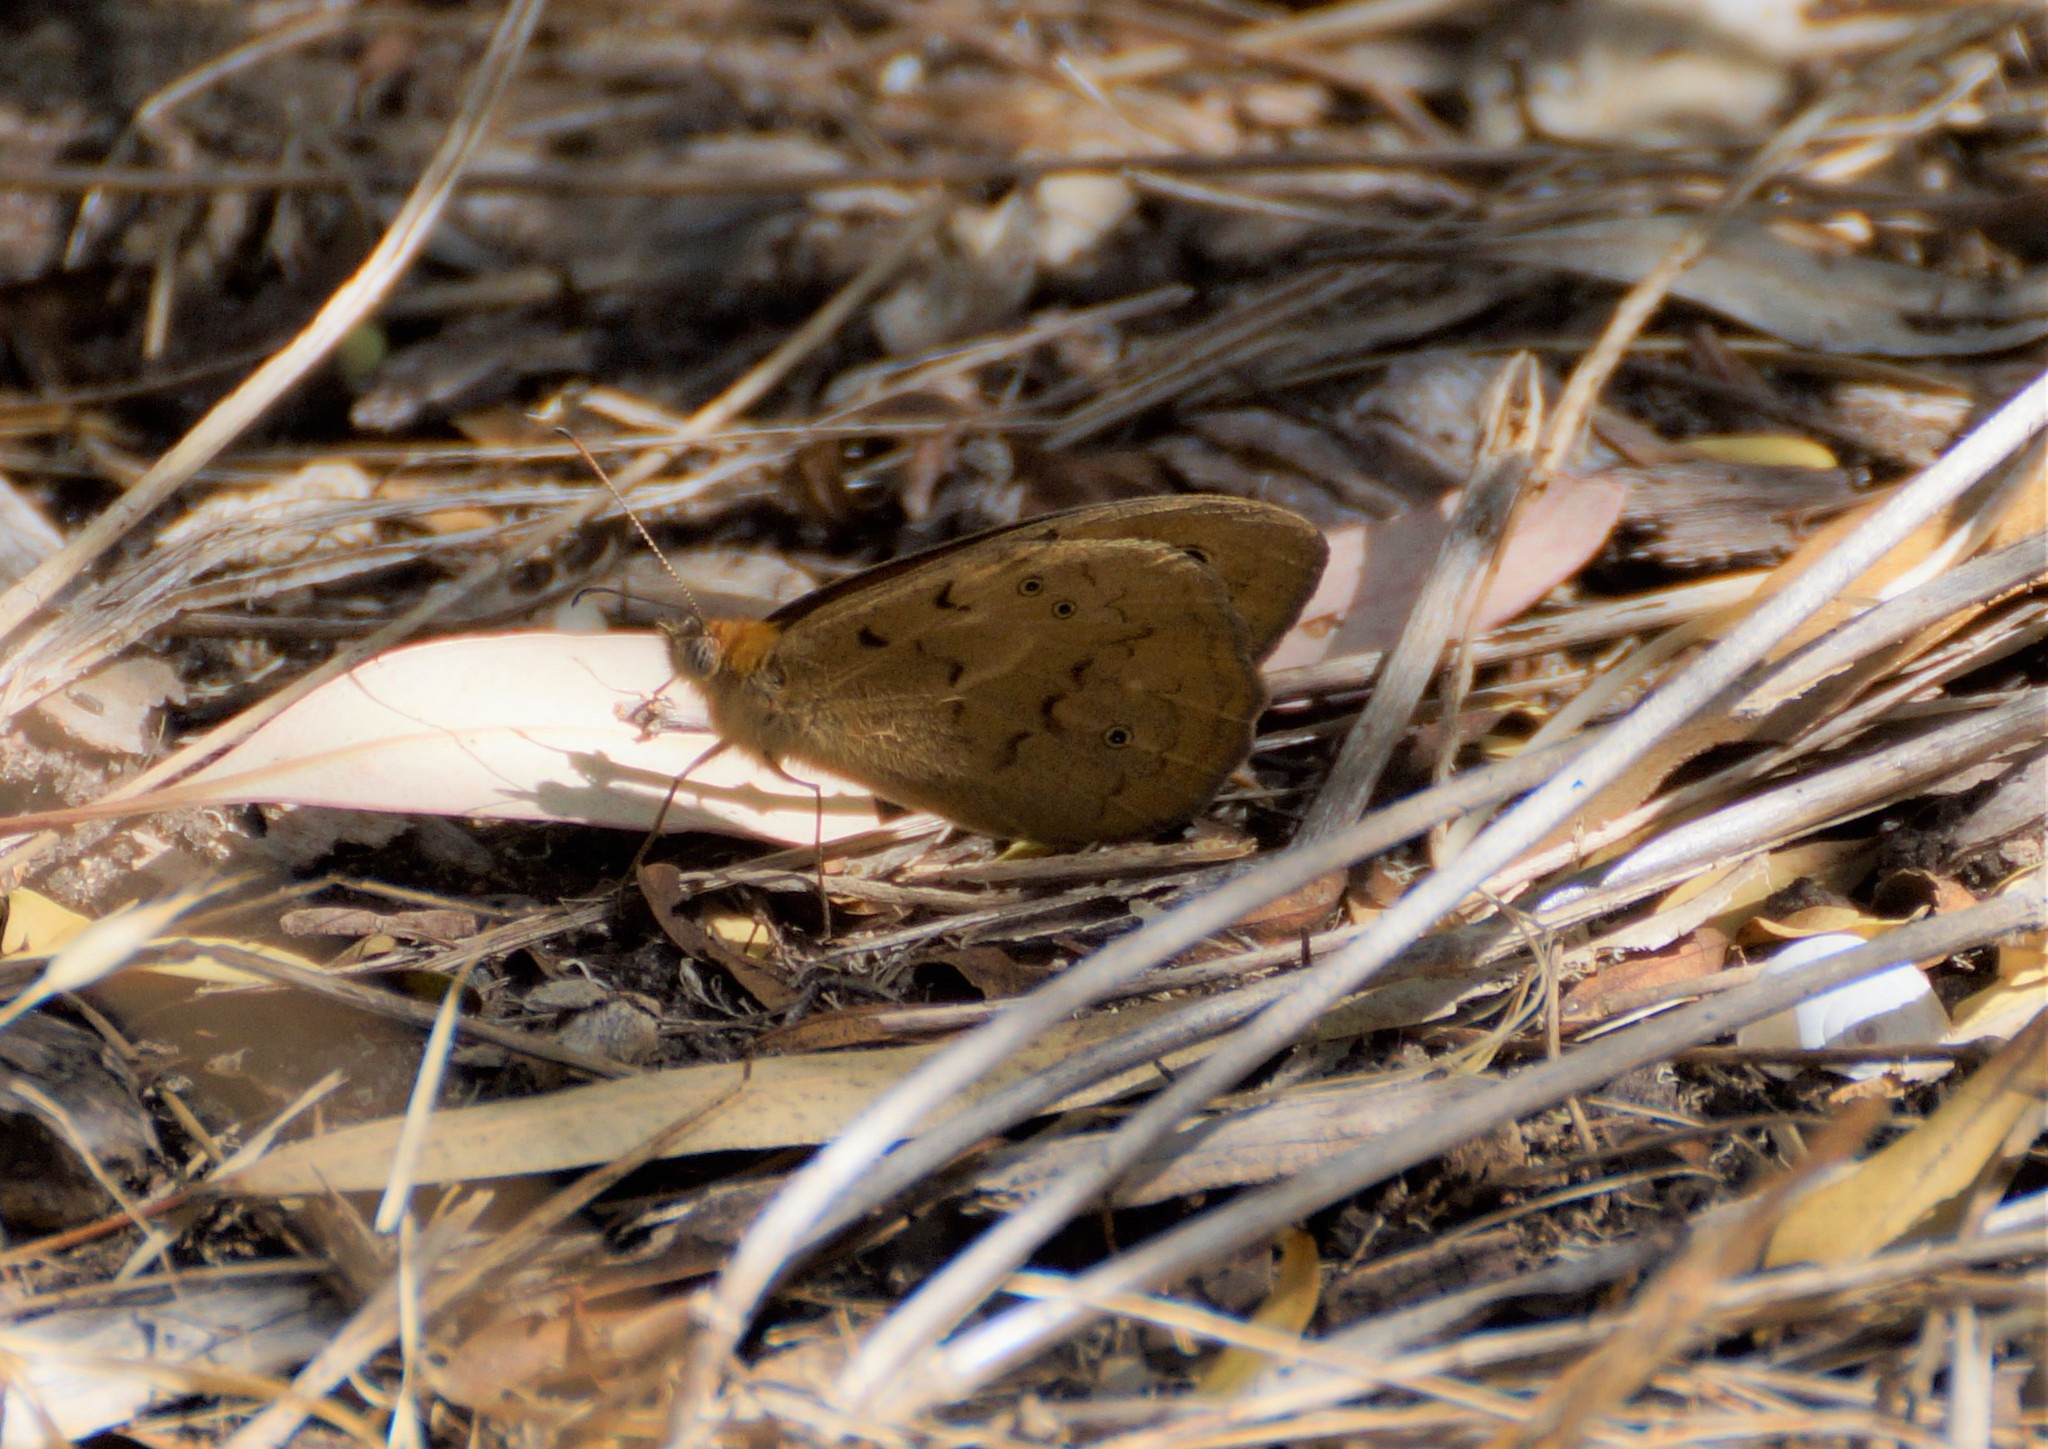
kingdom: Animalia
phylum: Arthropoda
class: Insecta
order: Lepidoptera
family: Nymphalidae
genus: Heteronympha
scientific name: Heteronympha merope
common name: Common brown
